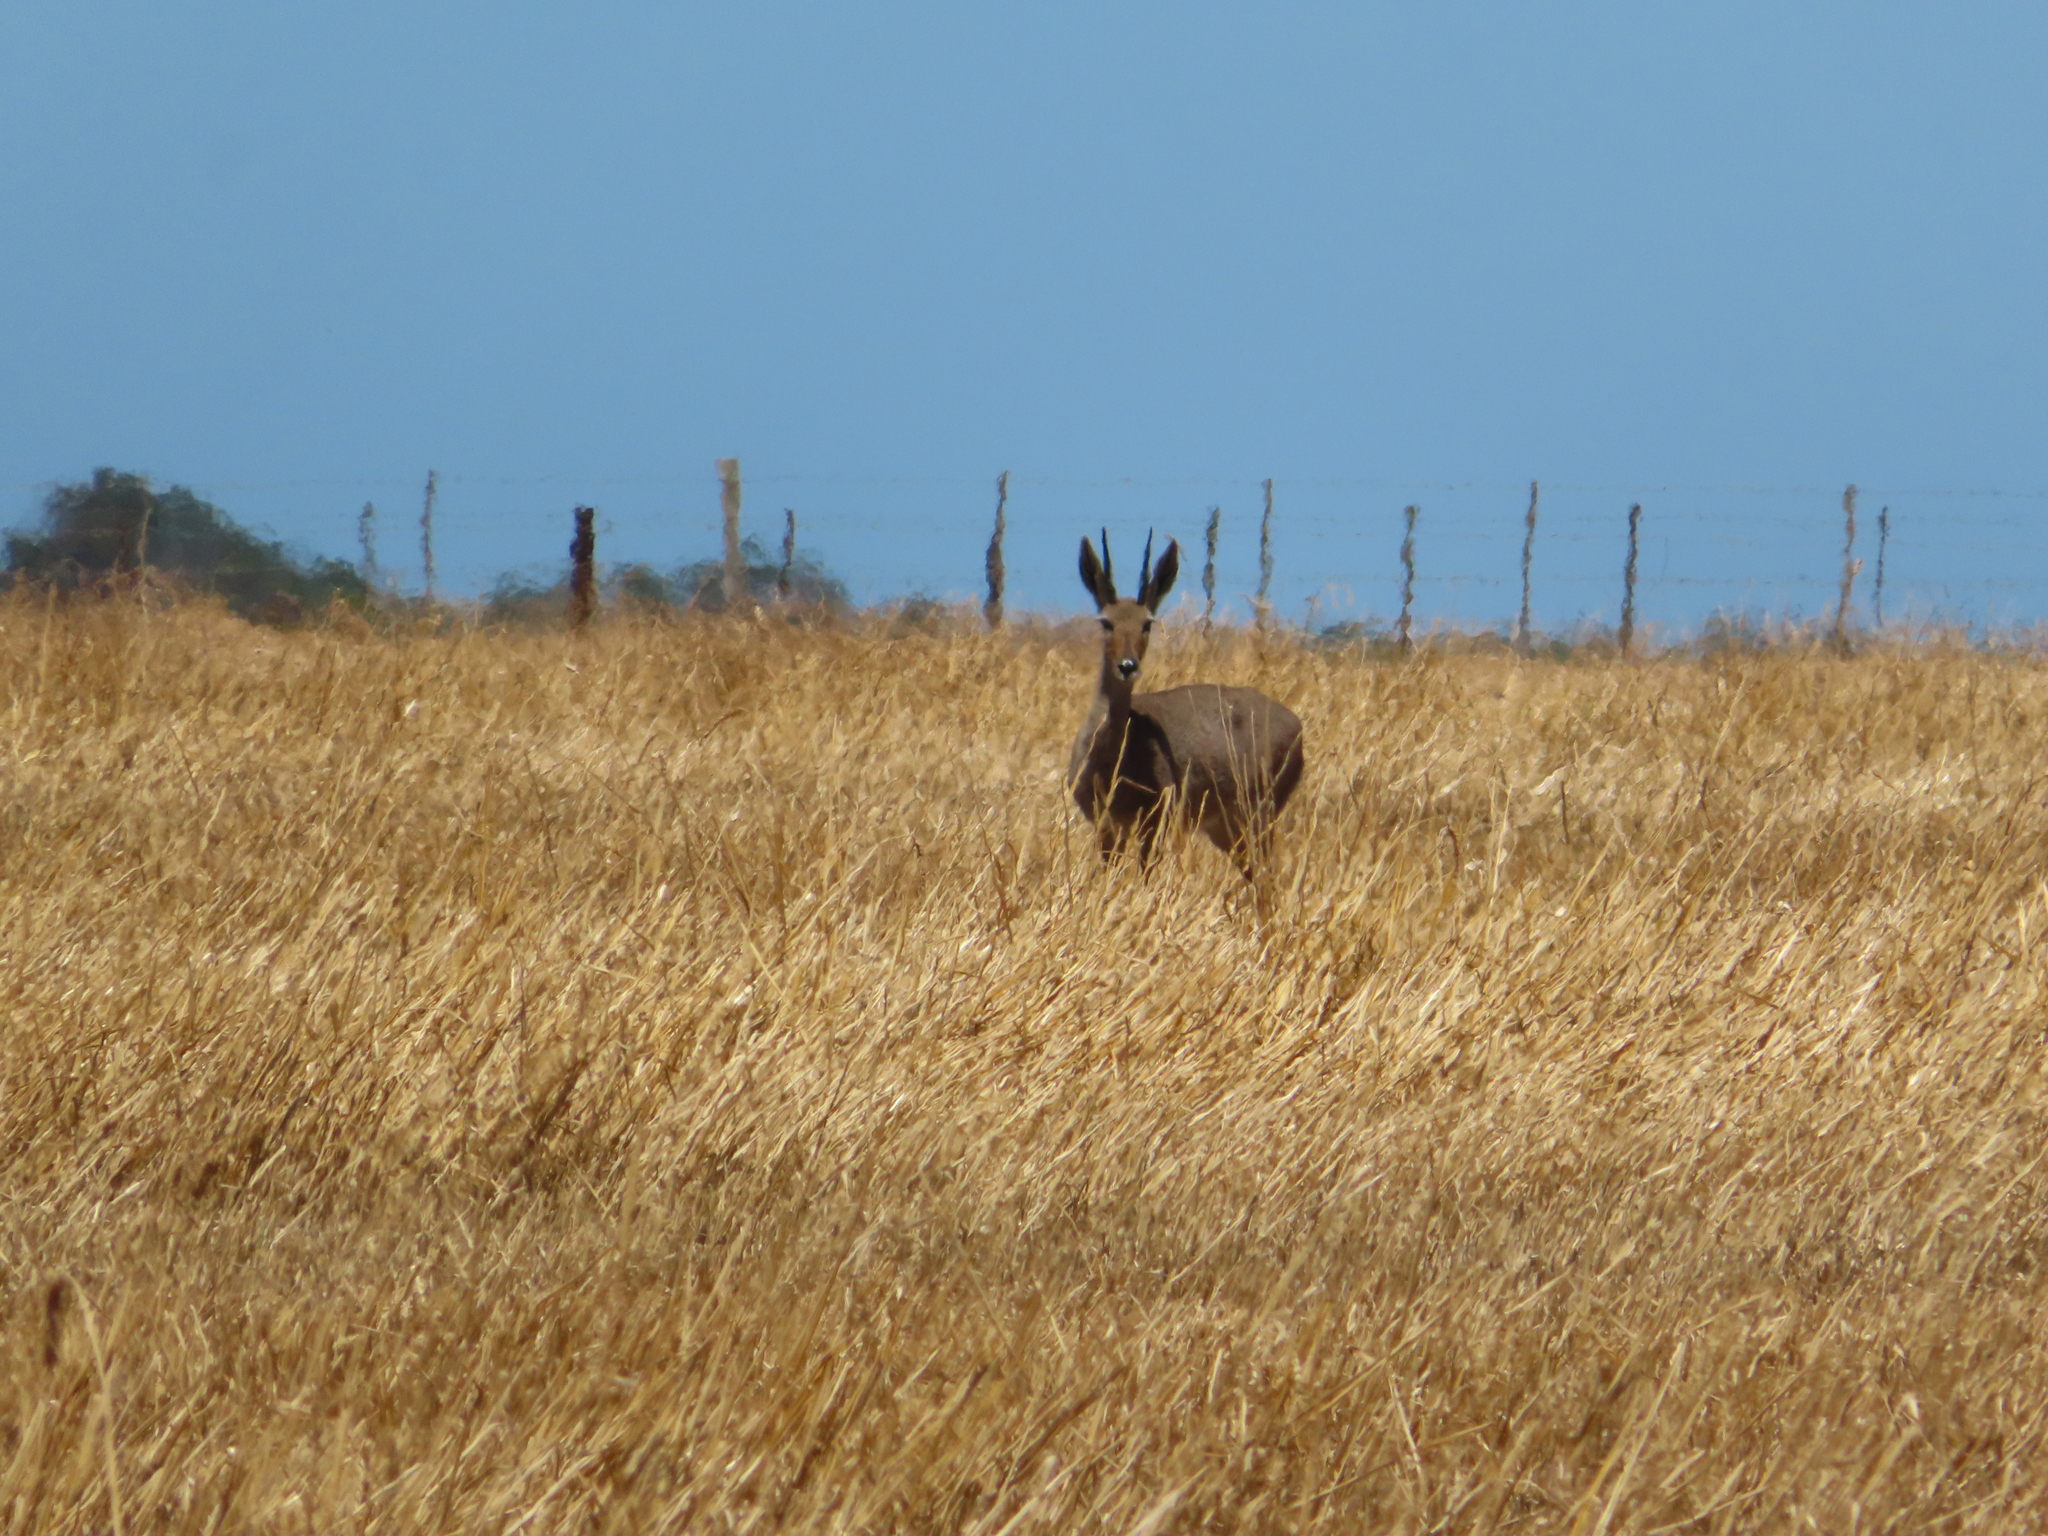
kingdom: Animalia
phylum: Chordata
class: Mammalia
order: Artiodactyla
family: Bovidae
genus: Pelea
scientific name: Pelea capreolus
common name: Common rhebok
